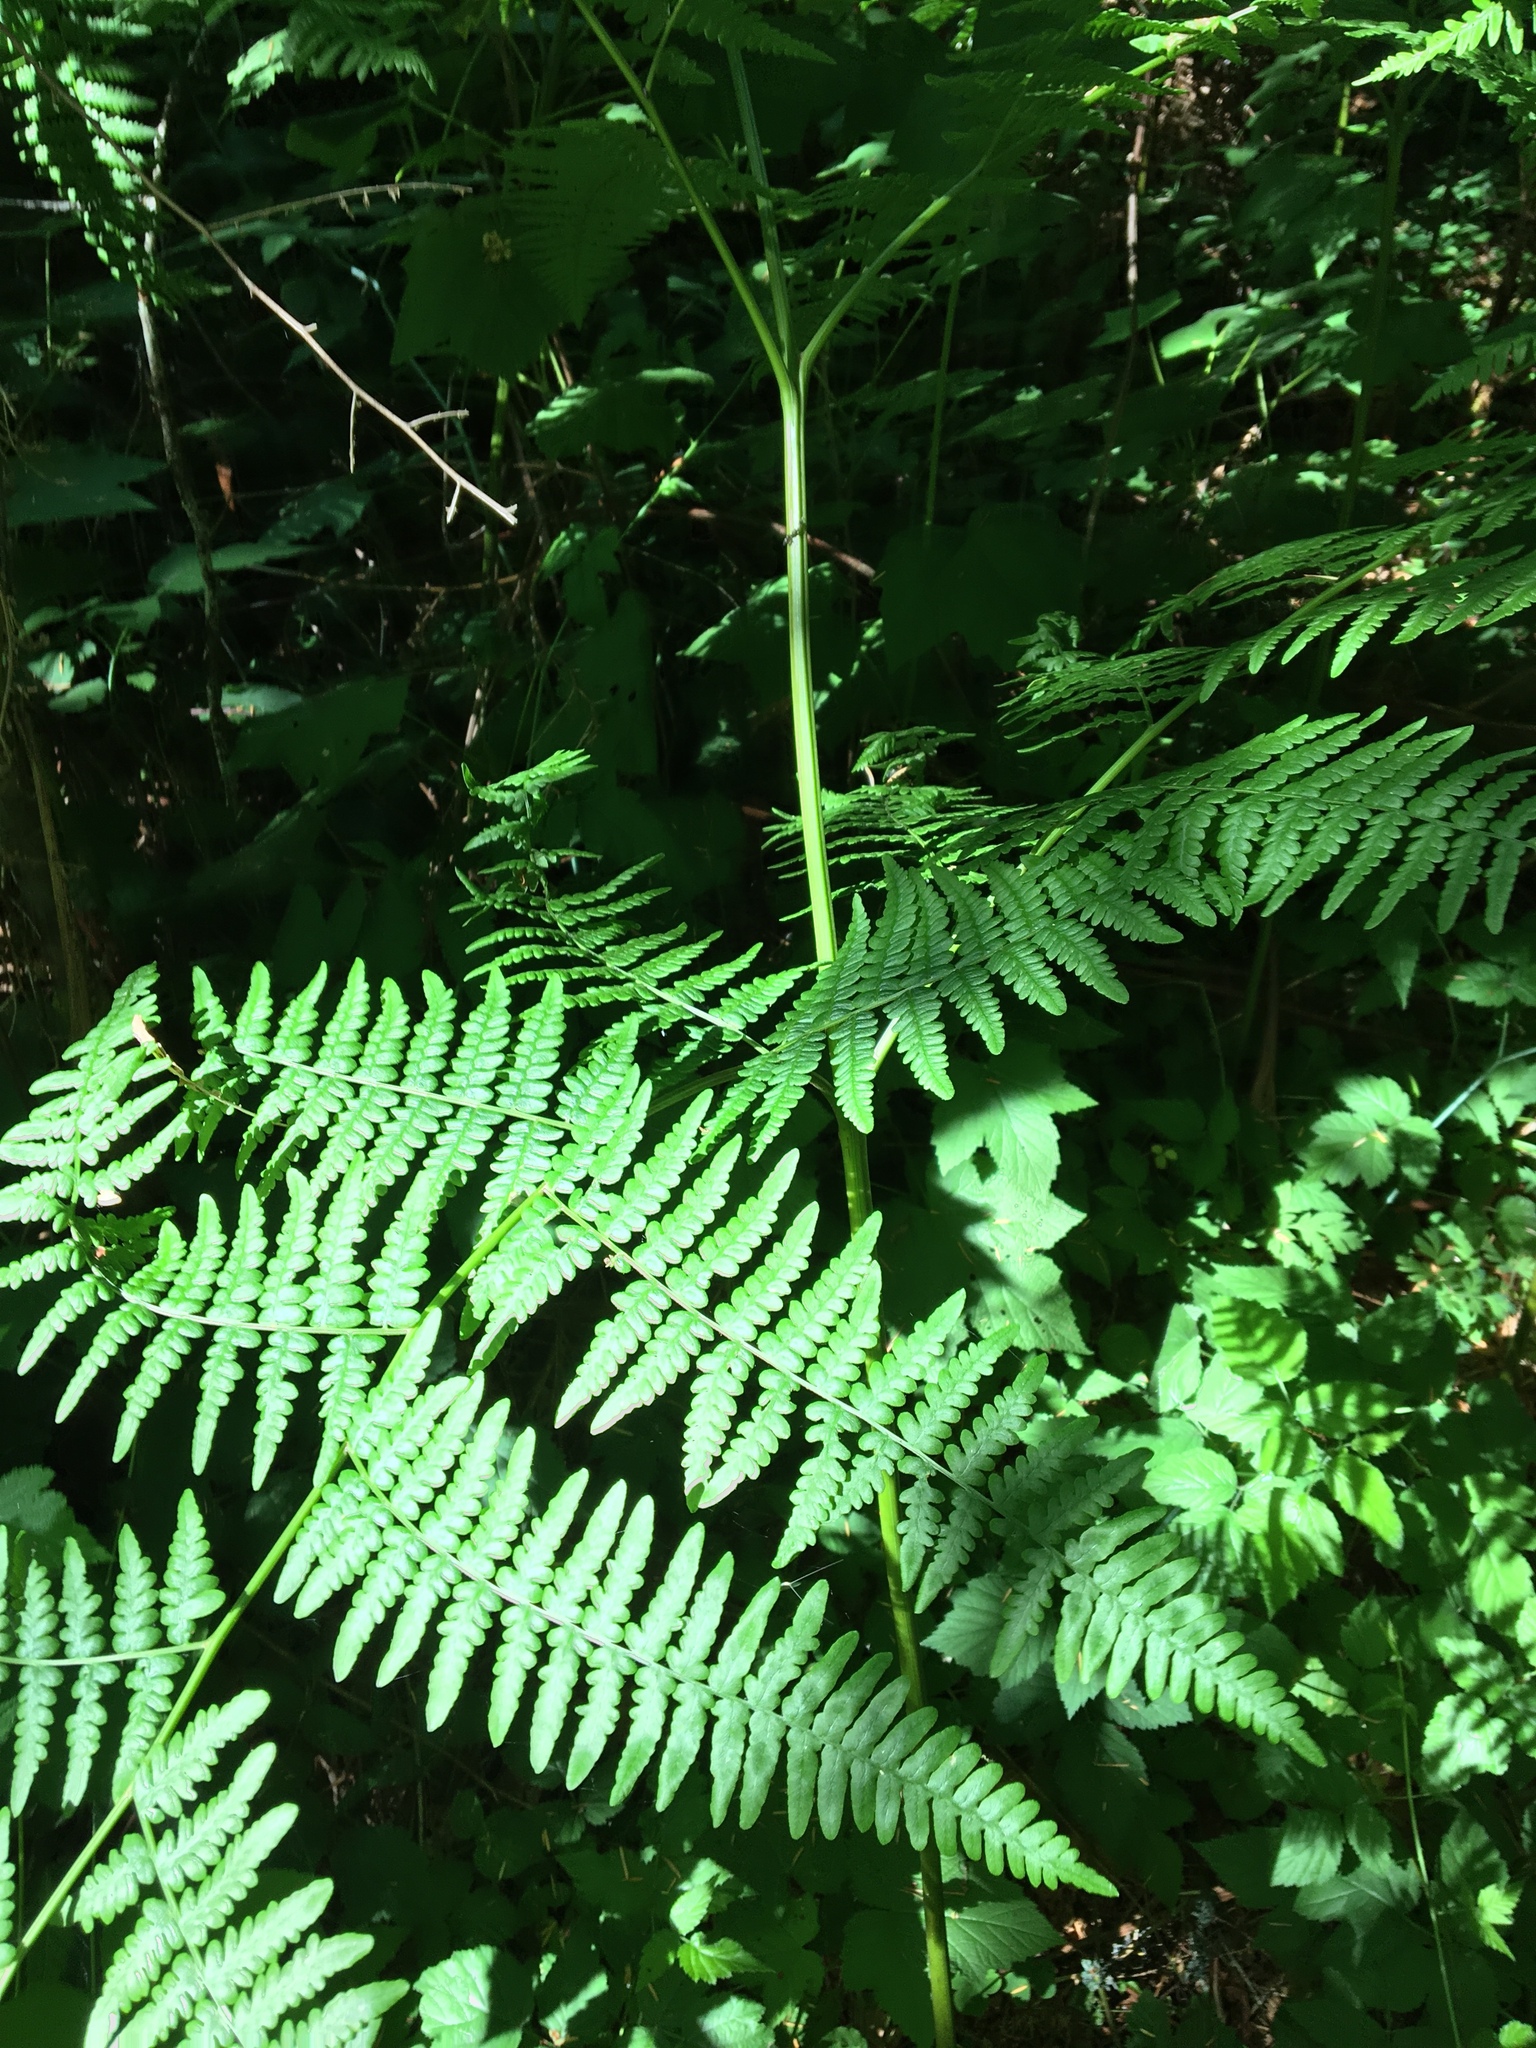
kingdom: Plantae
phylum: Tracheophyta
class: Polypodiopsida
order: Polypodiales
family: Dennstaedtiaceae
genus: Pteridium
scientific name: Pteridium aquilinum
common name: Bracken
